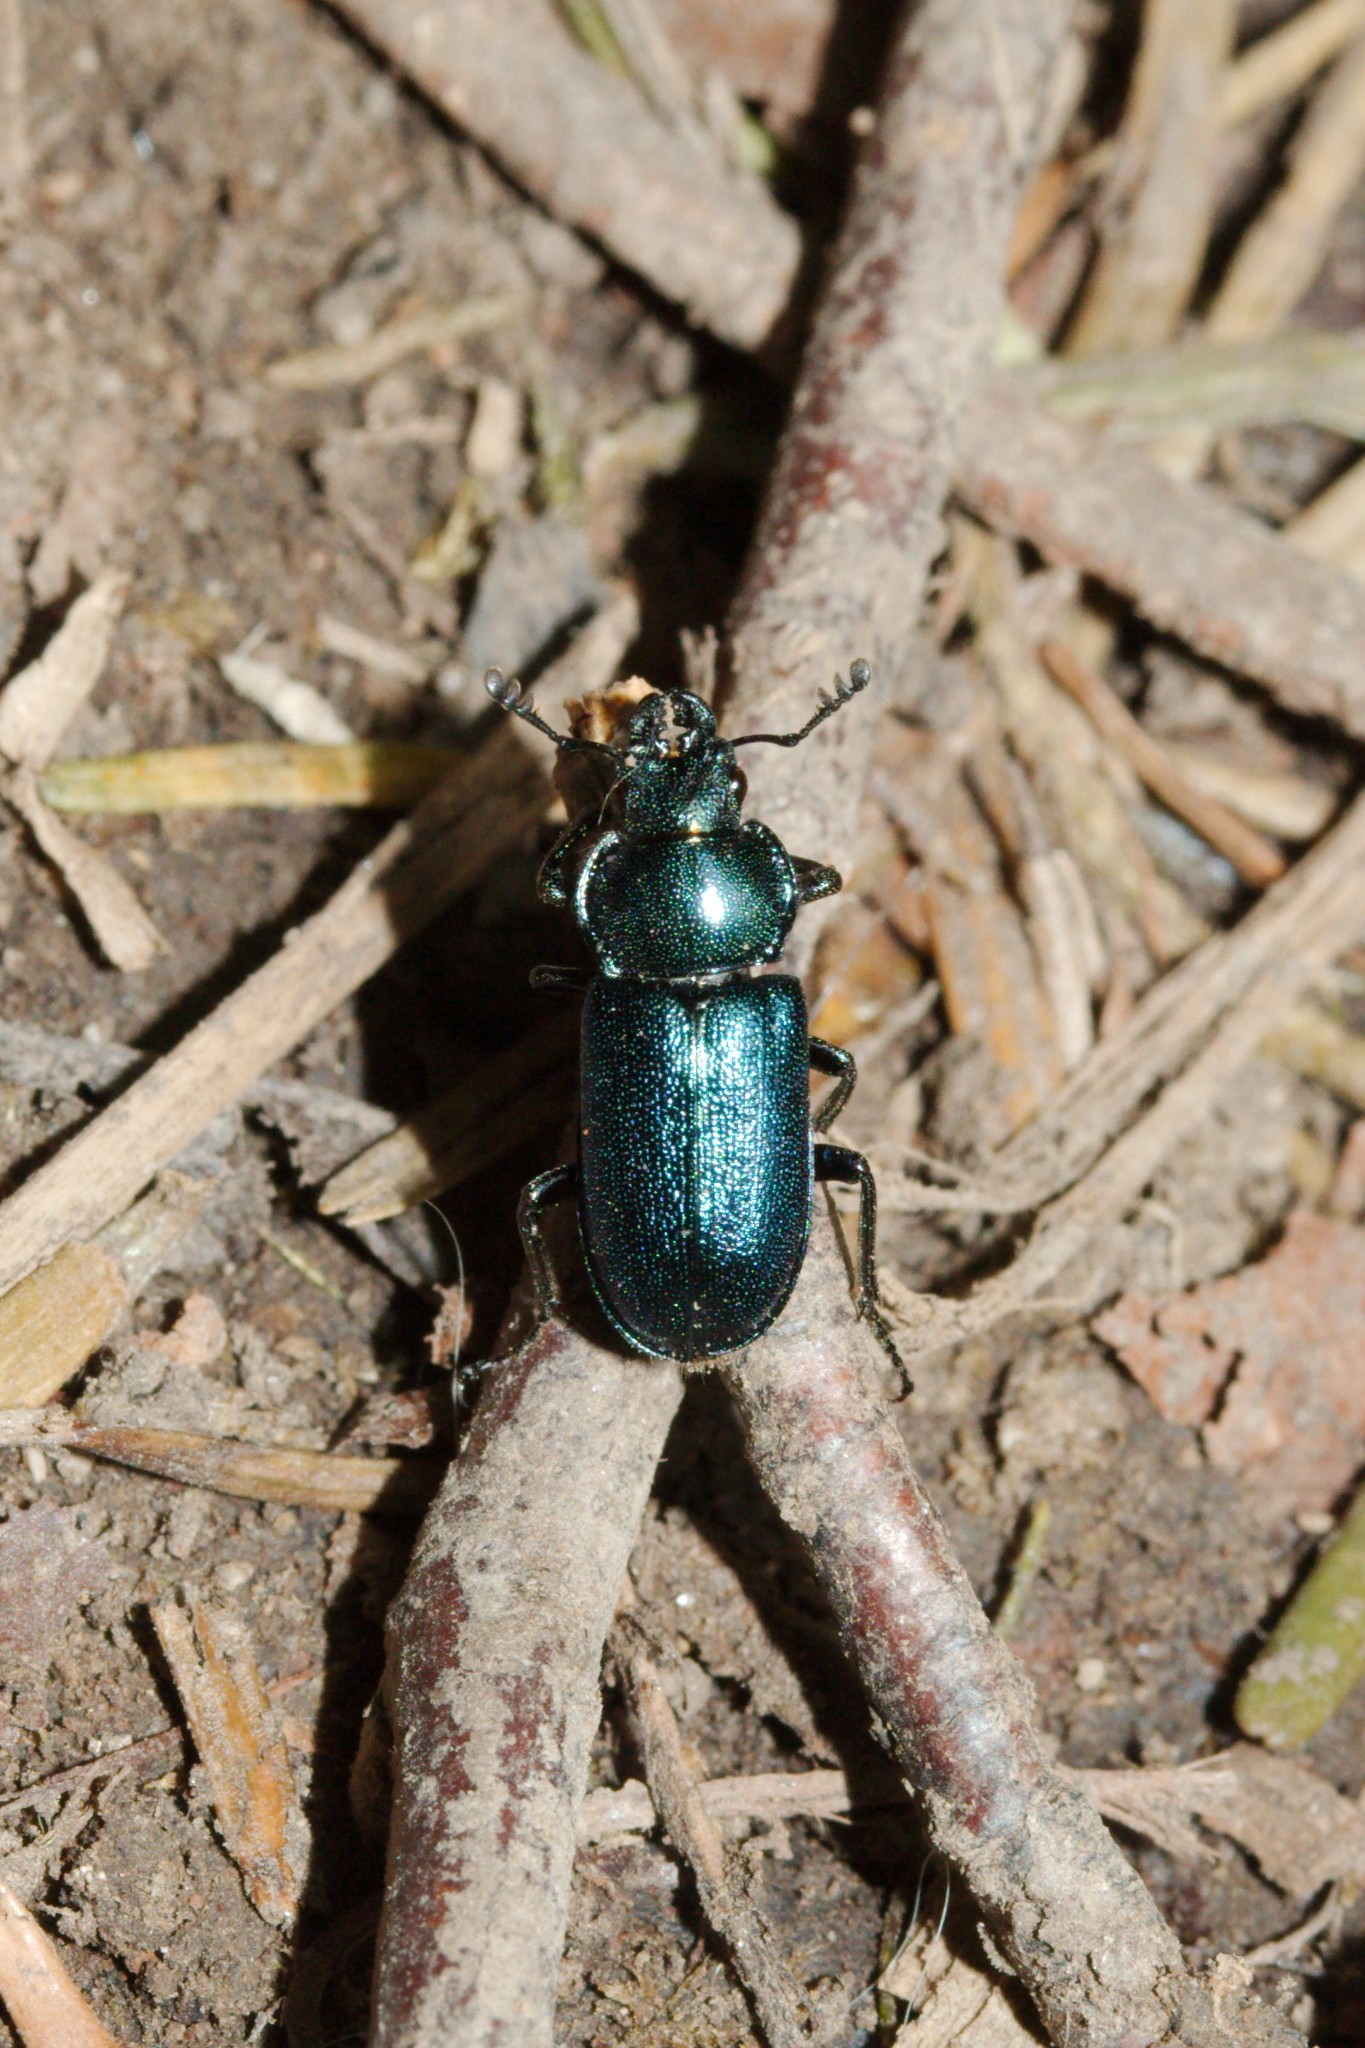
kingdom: Animalia
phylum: Arthropoda
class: Insecta
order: Coleoptera
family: Lucanidae
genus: Platycerus
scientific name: Platycerus caraboides
